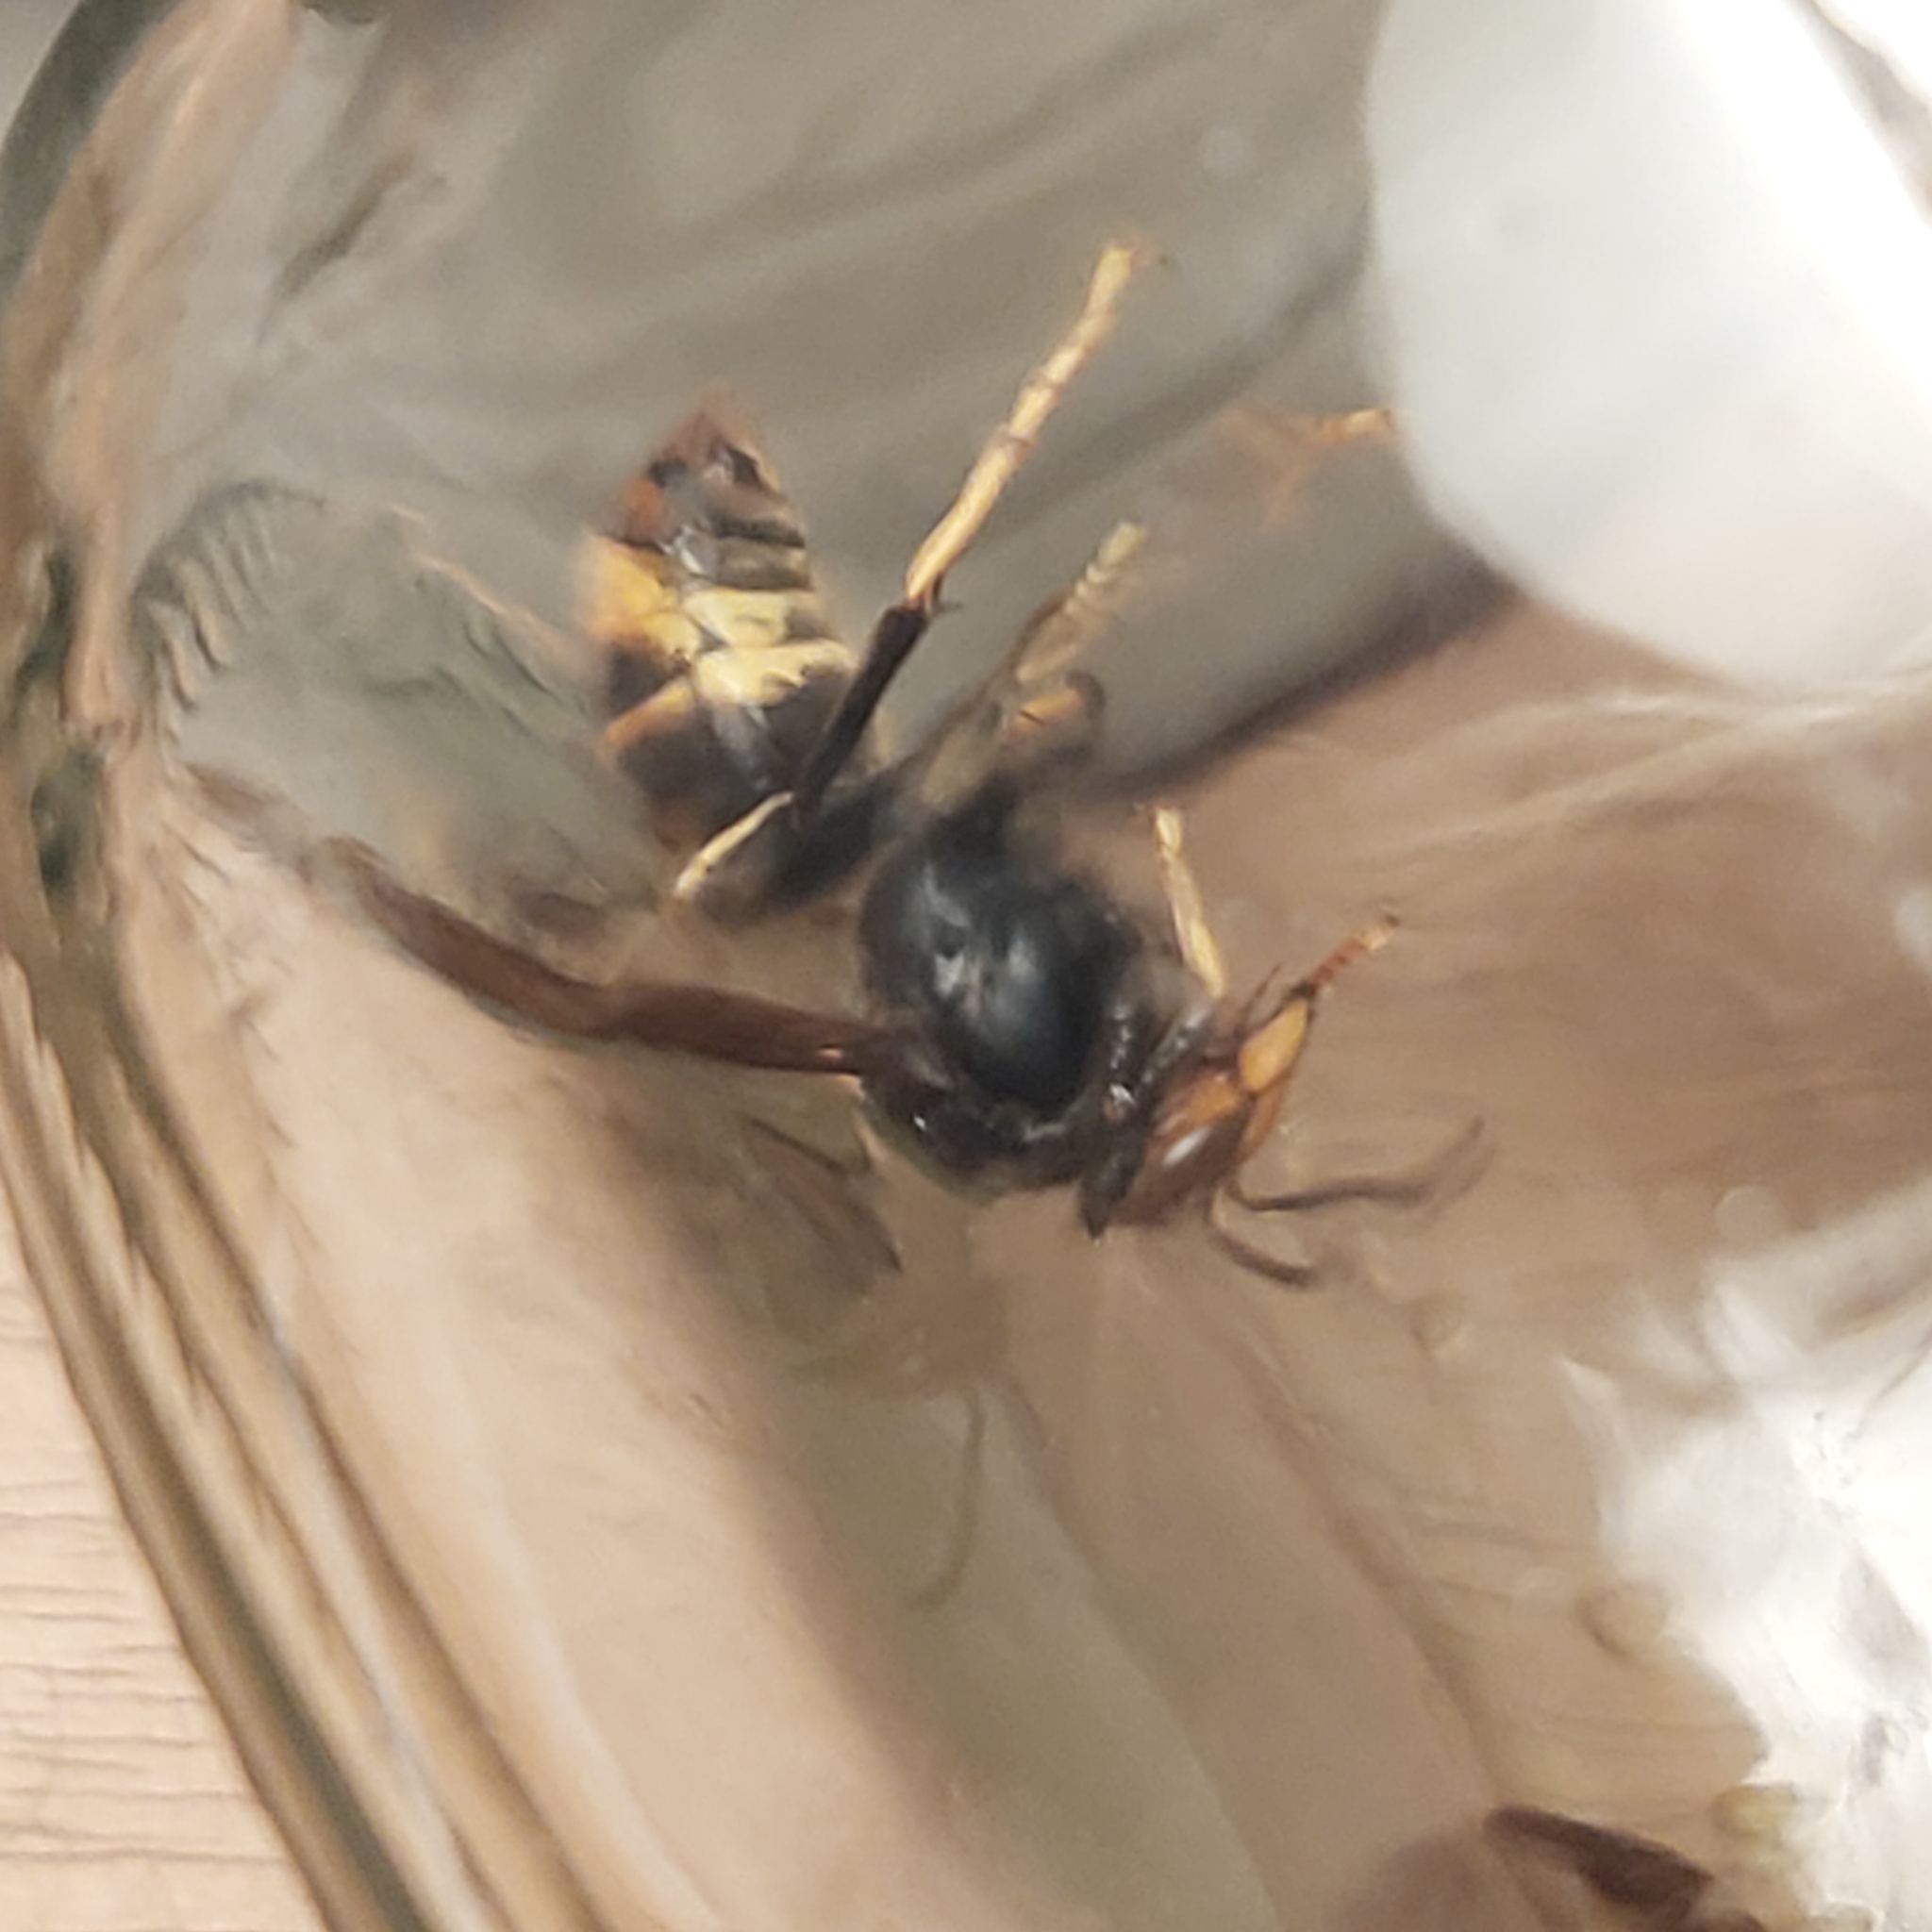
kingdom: Animalia
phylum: Arthropoda
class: Insecta
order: Hymenoptera
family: Vespidae
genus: Vespa
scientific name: Vespa velutina
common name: Asian hornet
